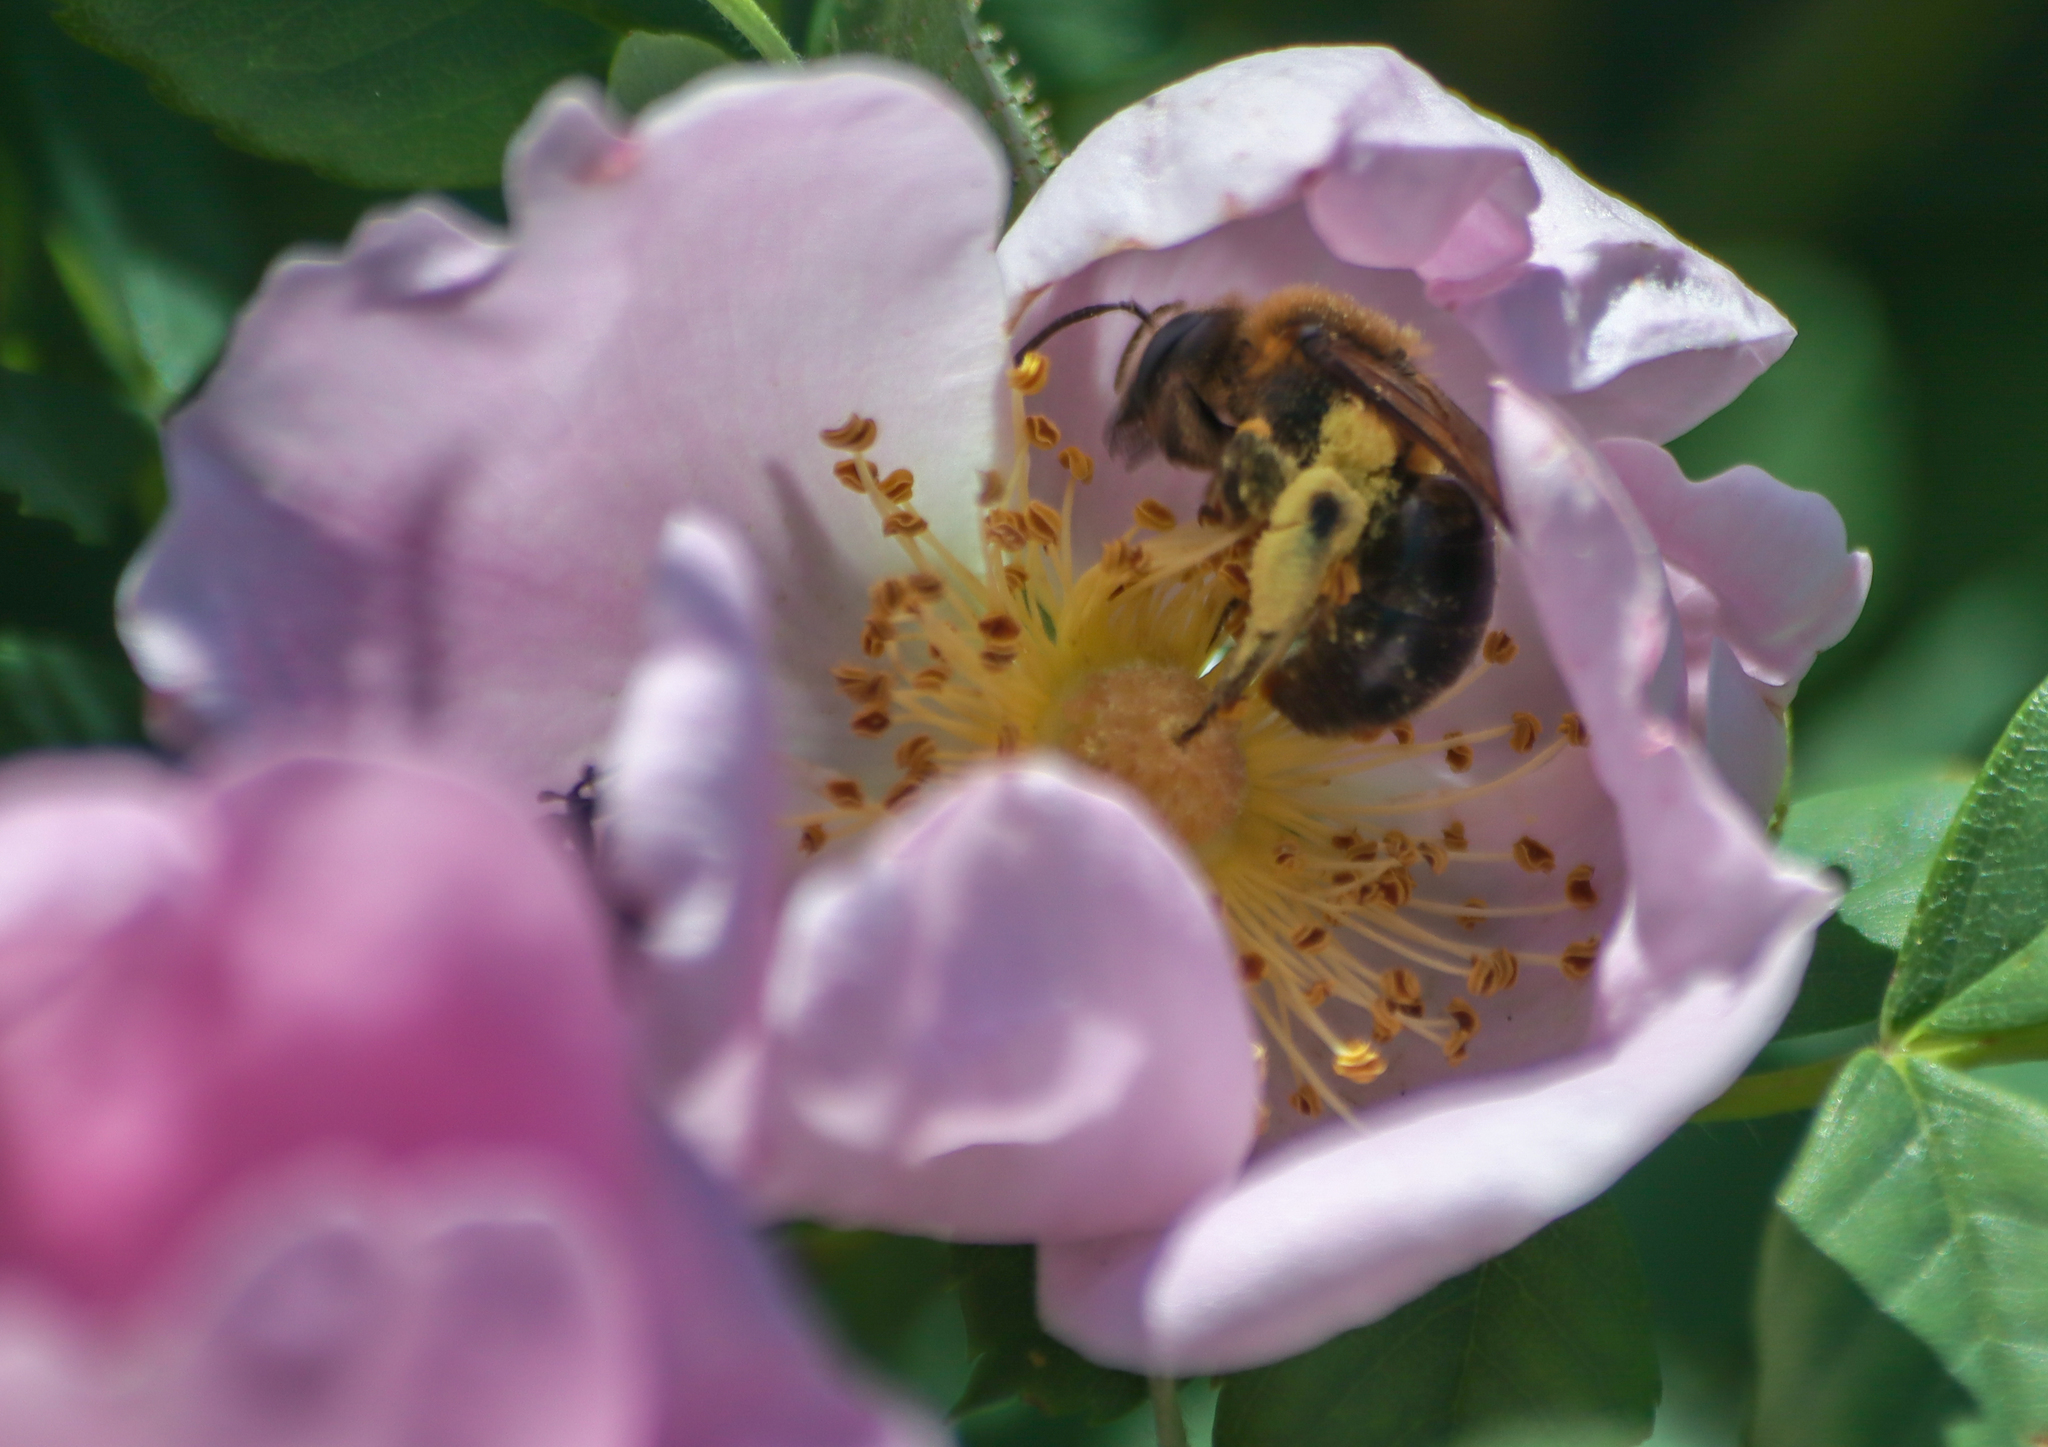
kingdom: Animalia
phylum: Arthropoda
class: Insecta
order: Hymenoptera
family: Andrenidae
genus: Andrena
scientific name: Andrena dunningi
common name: Dunning's miner
